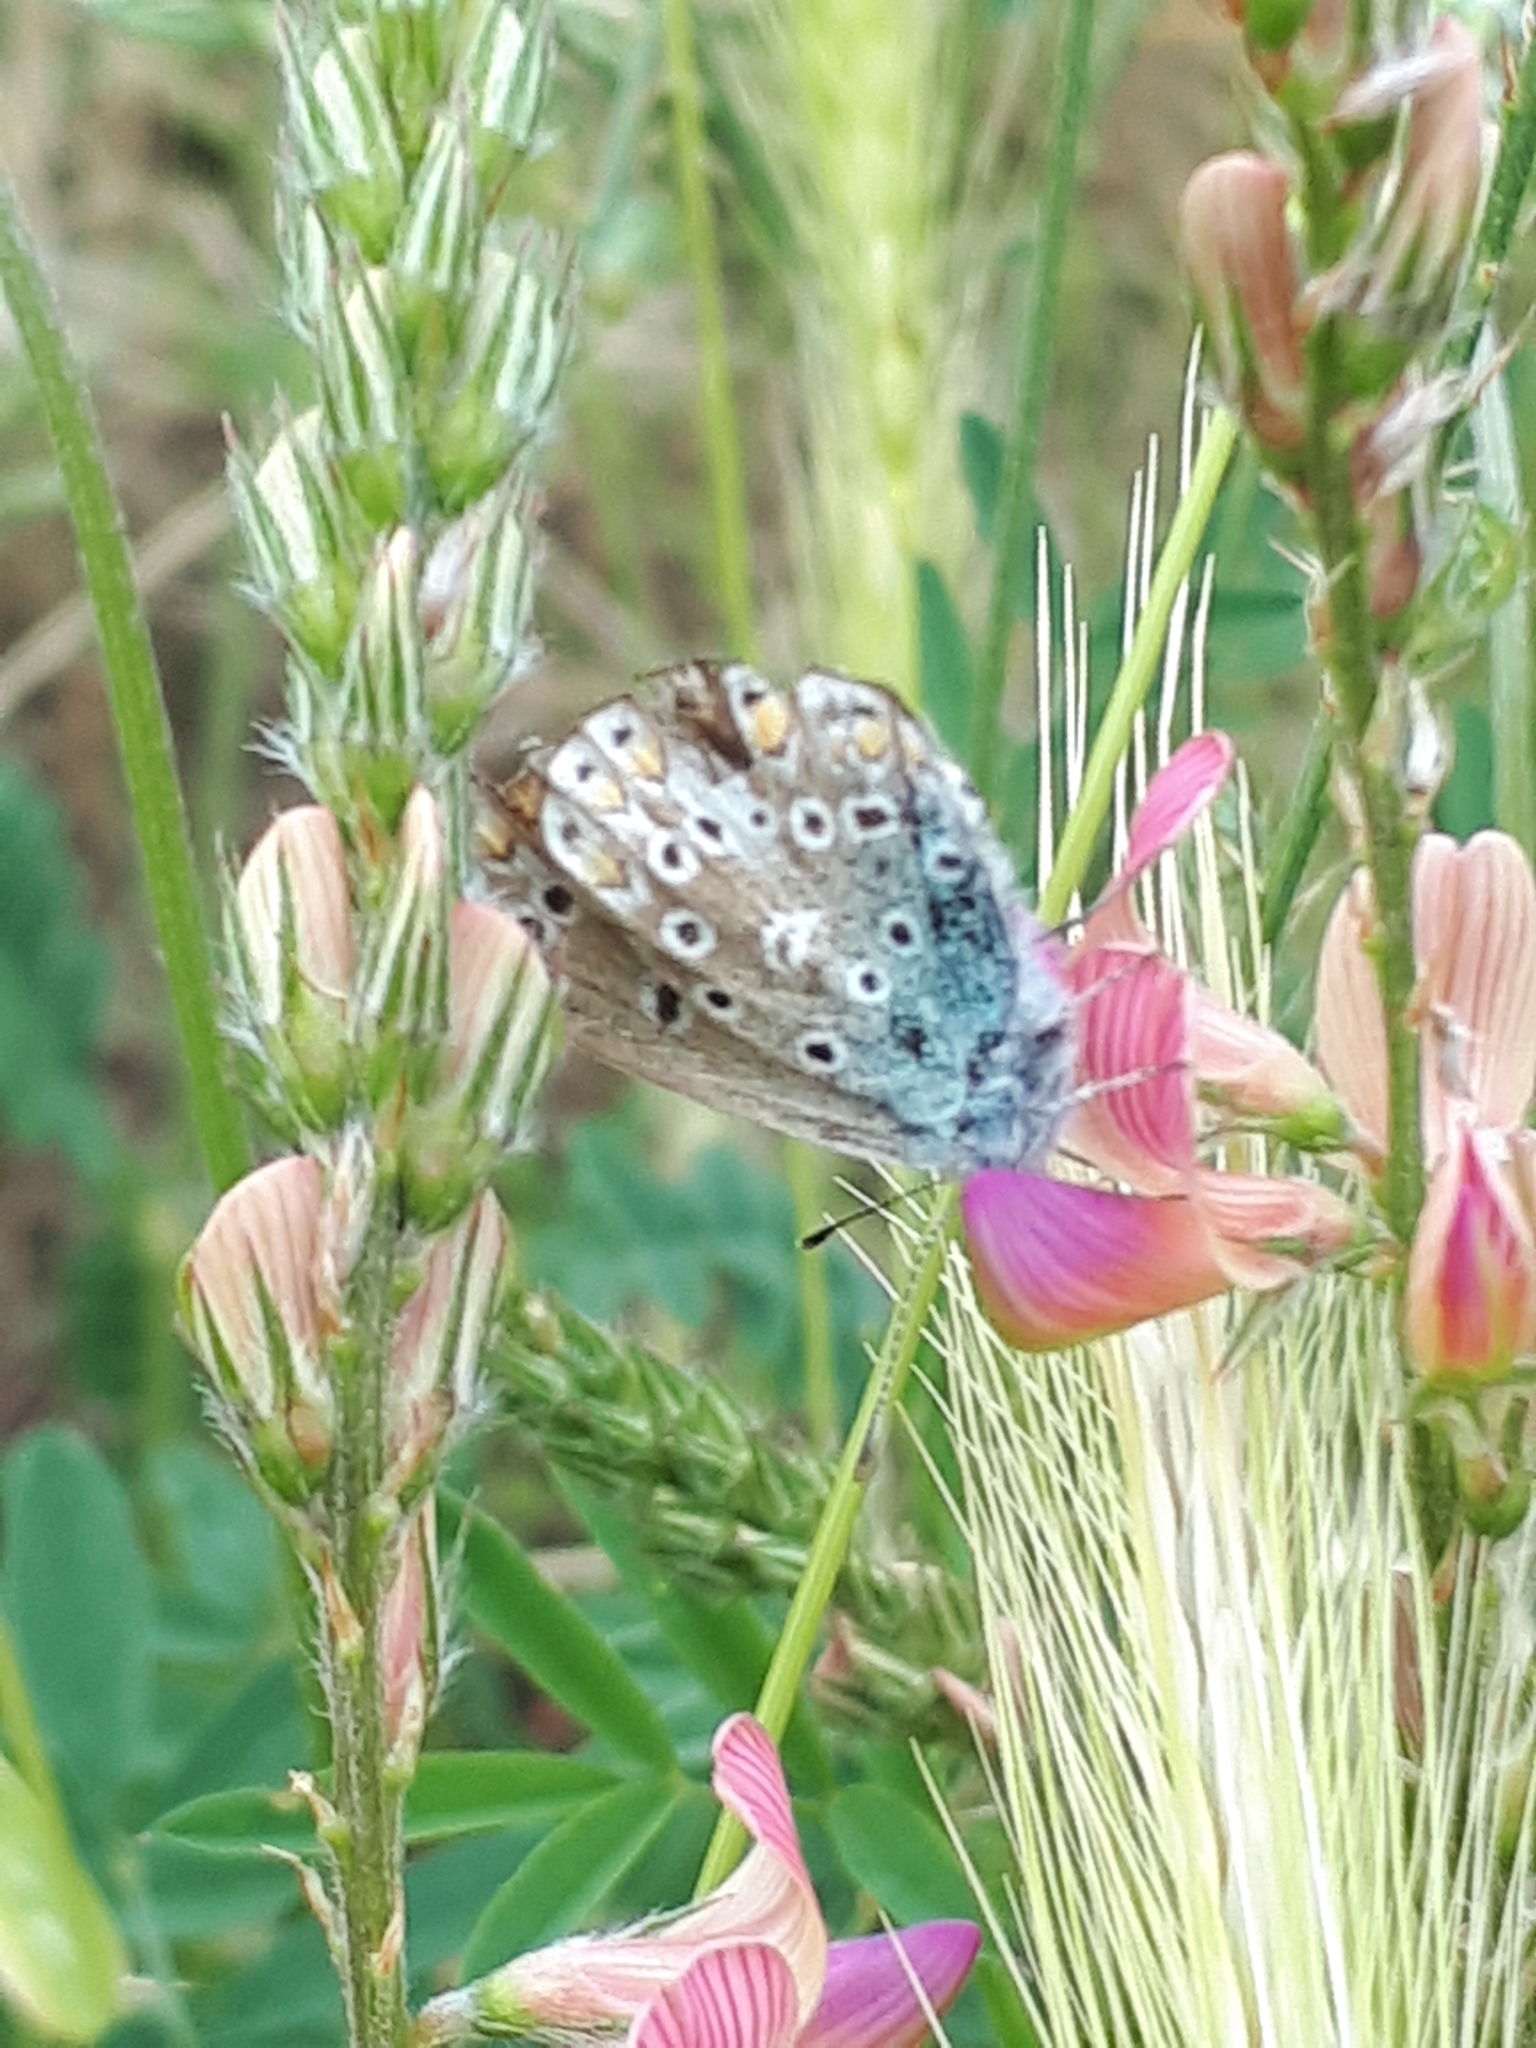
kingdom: Animalia
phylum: Arthropoda
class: Insecta
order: Lepidoptera
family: Lycaenidae
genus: Polyommatus
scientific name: Polyommatus icarus
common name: Common blue
